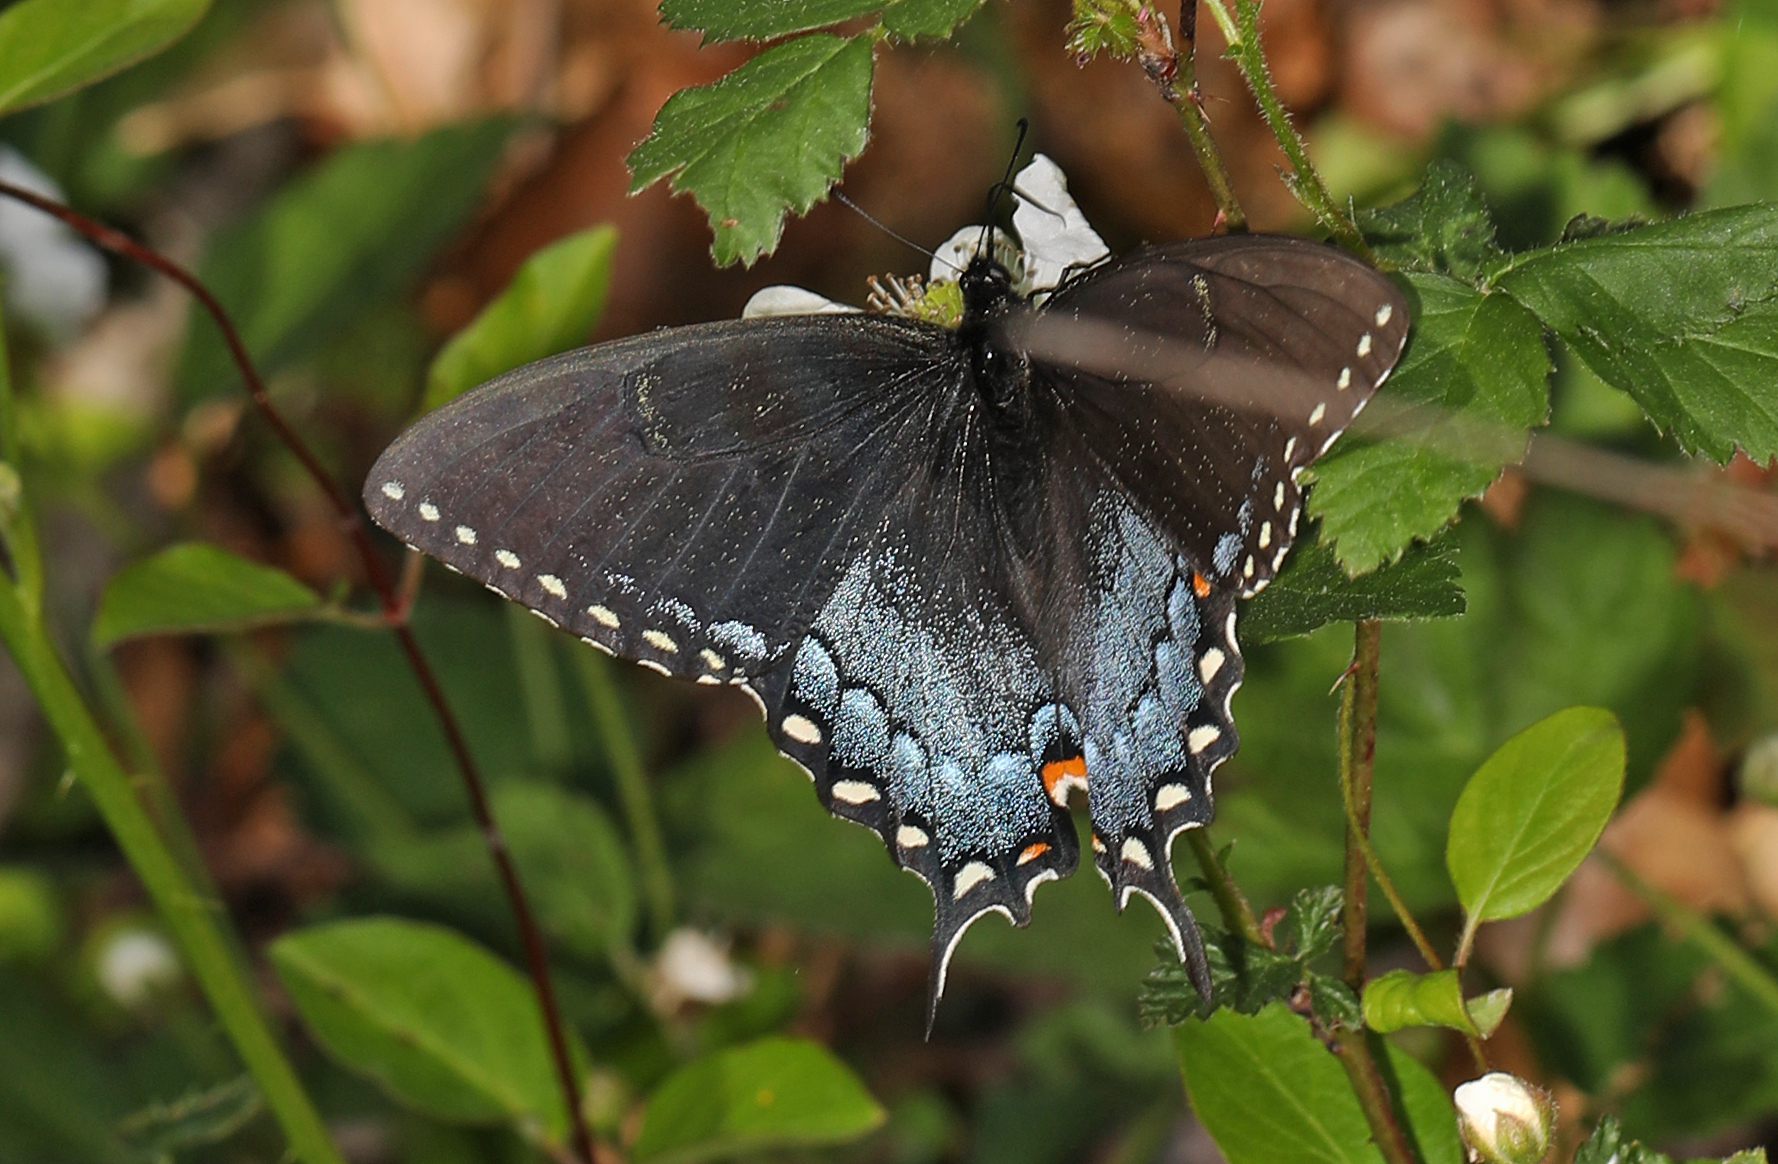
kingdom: Animalia
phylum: Arthropoda
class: Insecta
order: Lepidoptera
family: Papilionidae
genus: Papilio
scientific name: Papilio glaucus
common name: Tiger swallowtail
